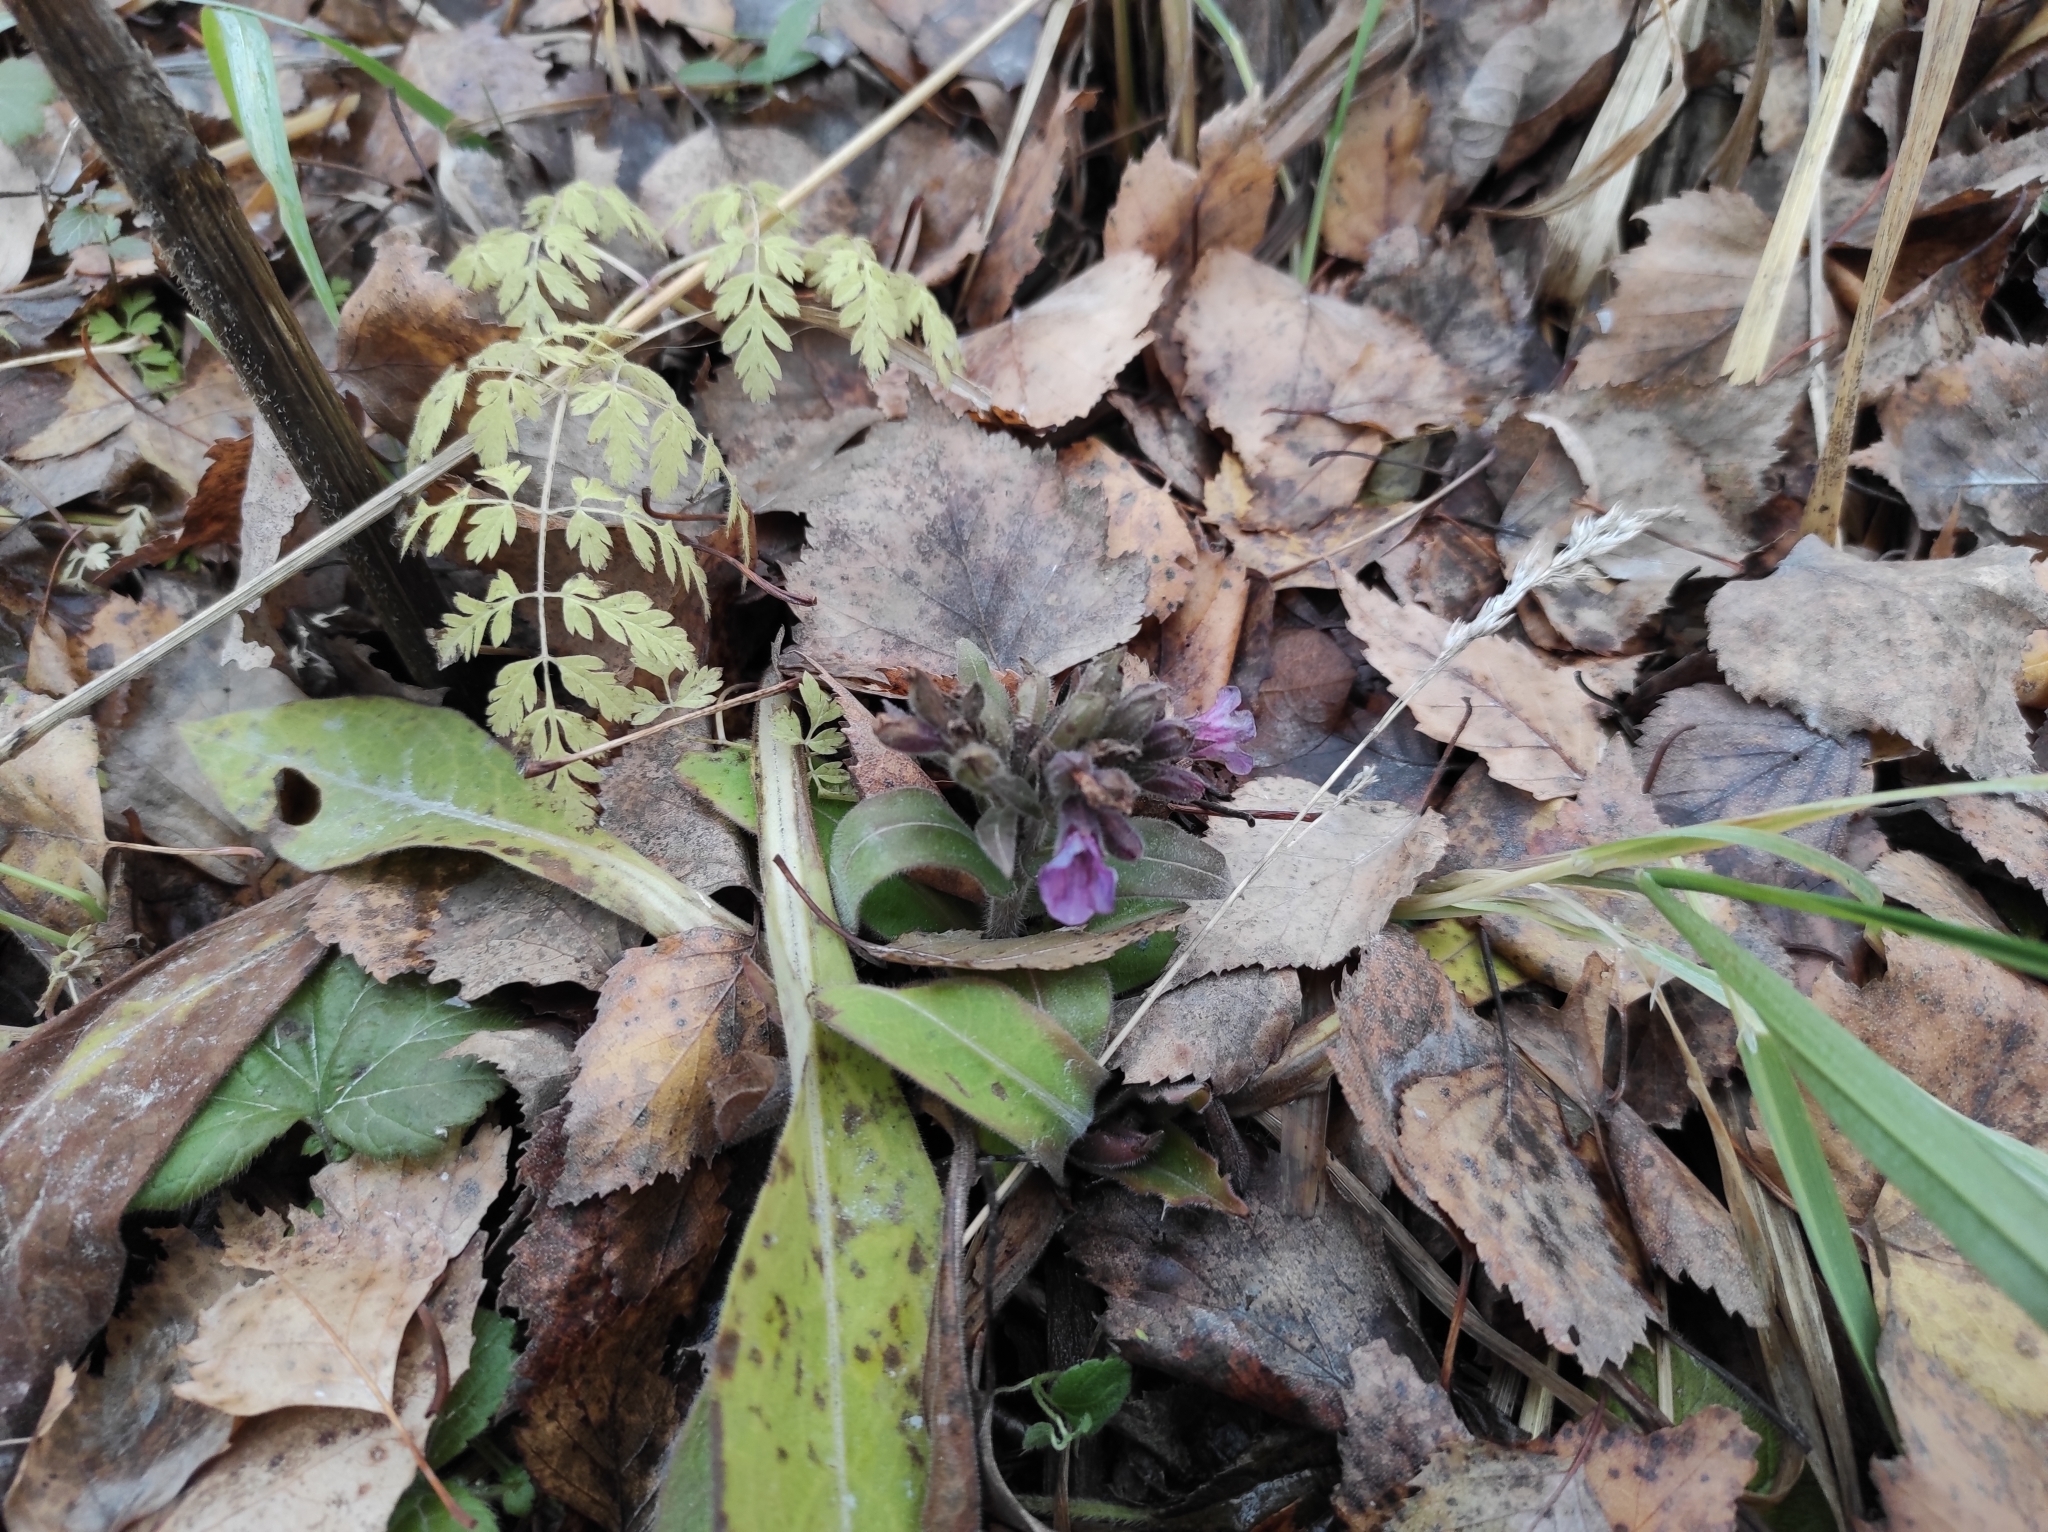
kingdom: Plantae
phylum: Tracheophyta
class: Magnoliopsida
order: Boraginales
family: Boraginaceae
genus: Pulmonaria
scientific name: Pulmonaria mollis
